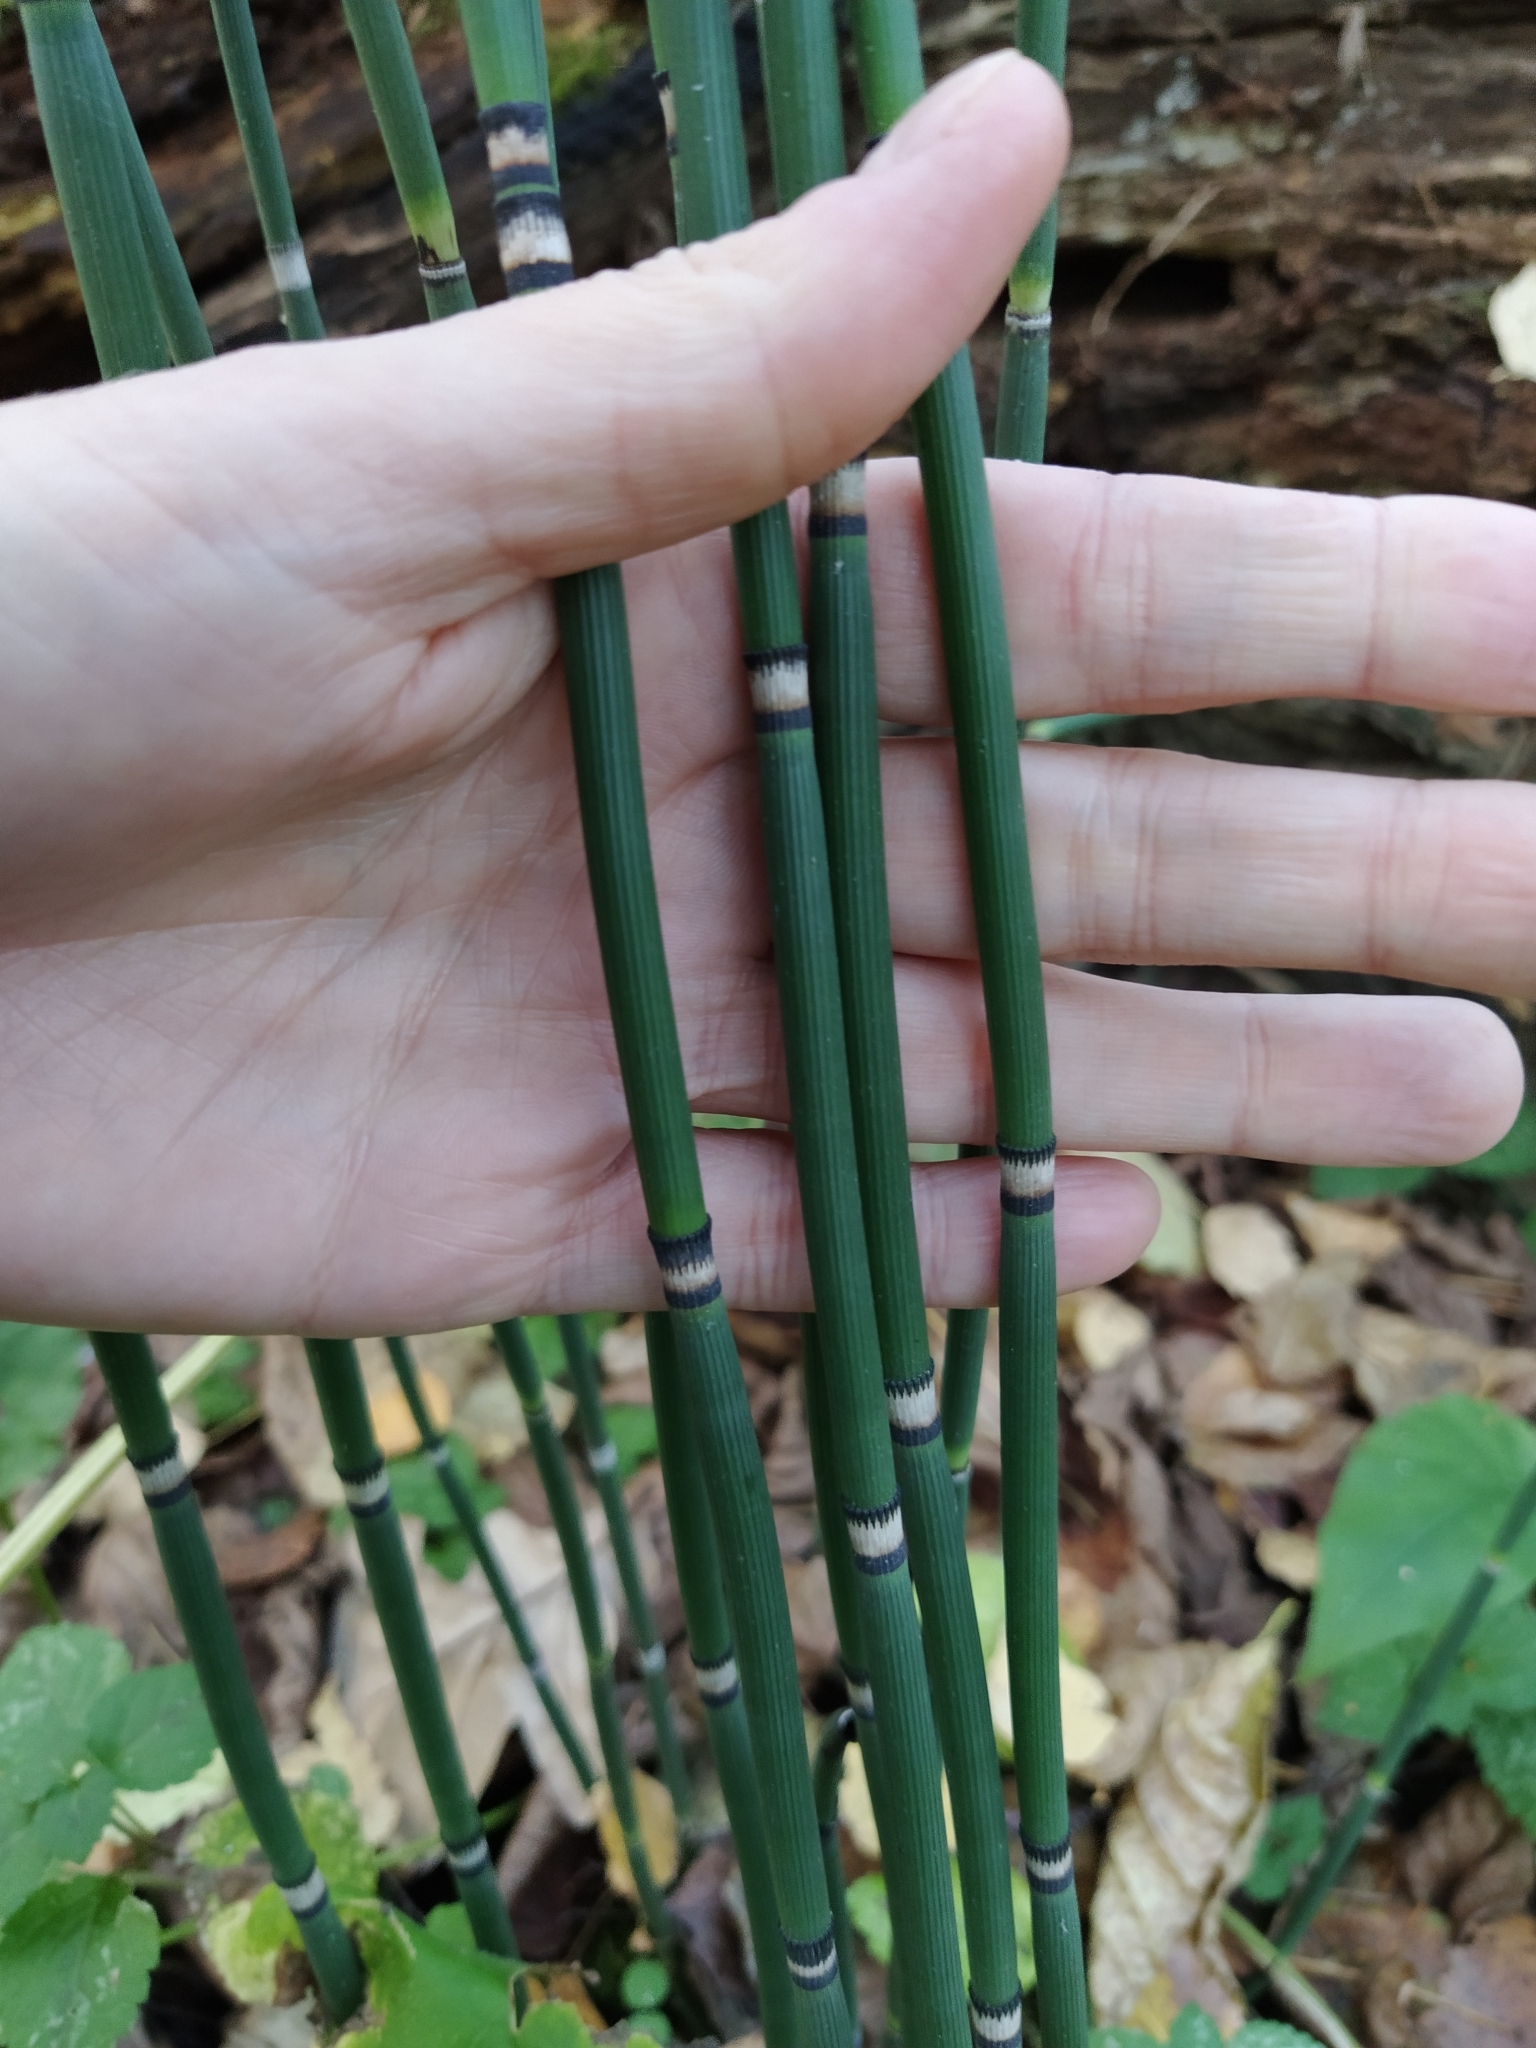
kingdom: Plantae
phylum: Tracheophyta
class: Polypodiopsida
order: Equisetales
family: Equisetaceae
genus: Equisetum
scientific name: Equisetum hyemale
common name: Rough horsetail
